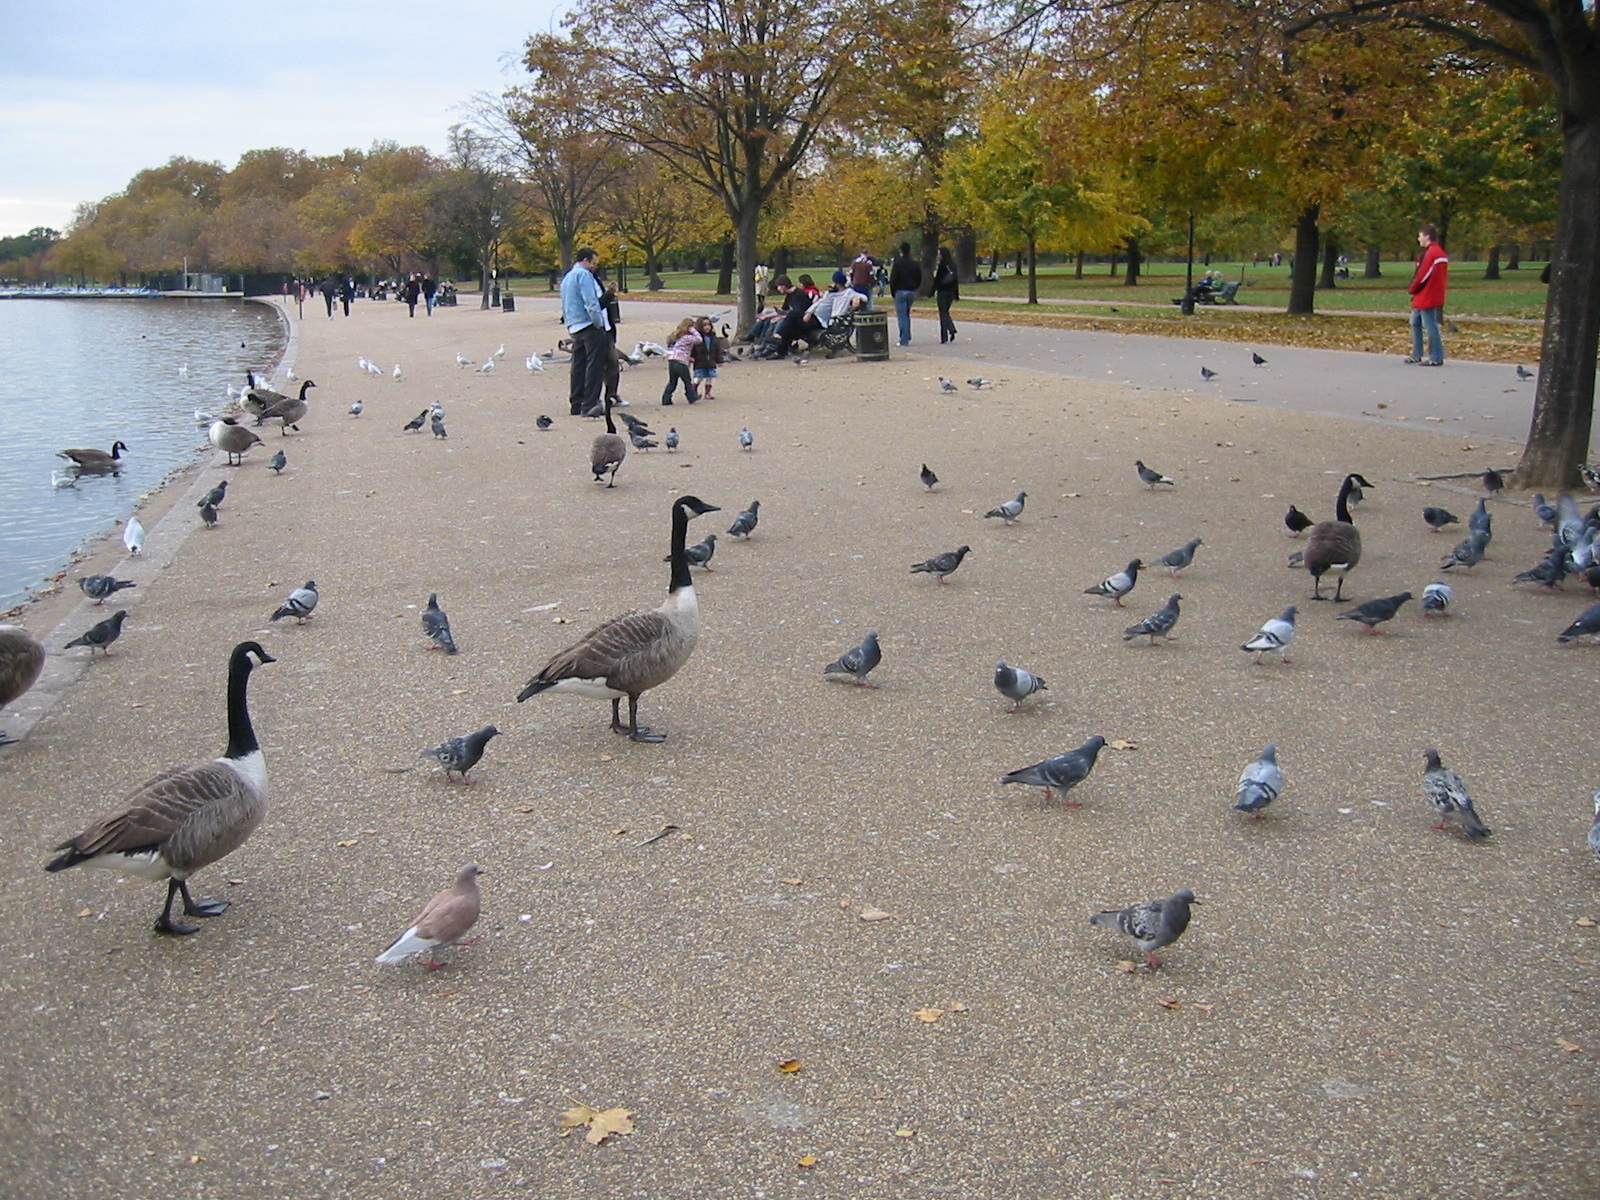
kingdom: Animalia
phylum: Chordata
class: Aves
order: Columbiformes
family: Columbidae
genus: Columba
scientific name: Columba livia
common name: Rock pigeon
